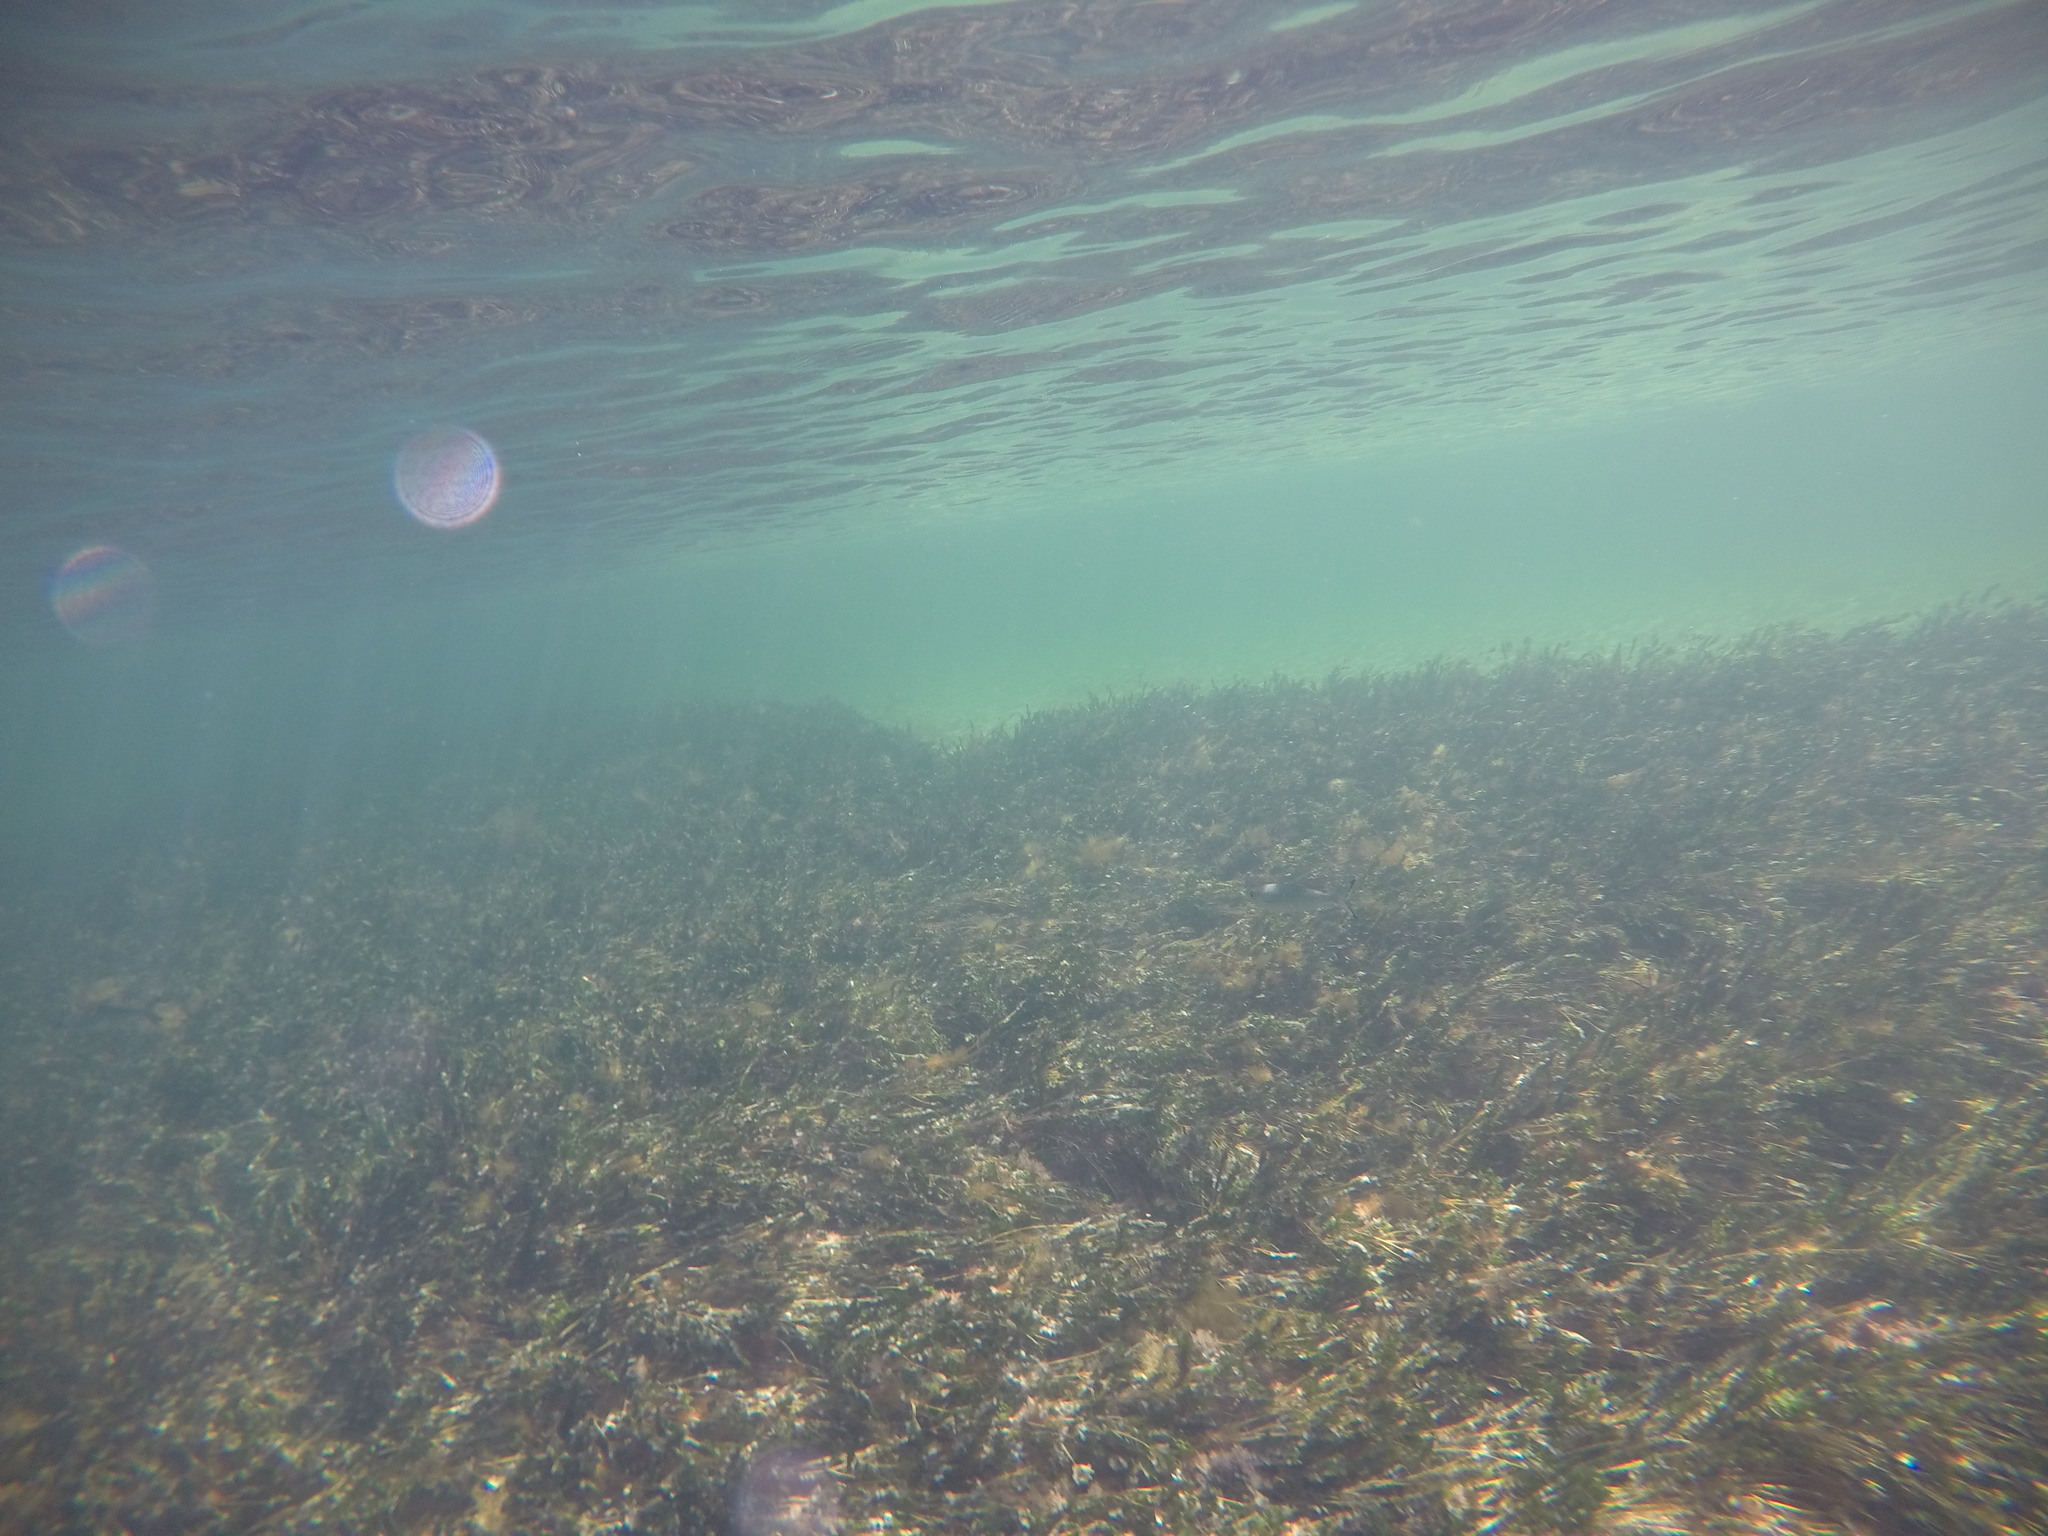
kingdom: Animalia
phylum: Chordata
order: Perciformes
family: Arripidae
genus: Arripis
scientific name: Arripis georgianus
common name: Australian herring
